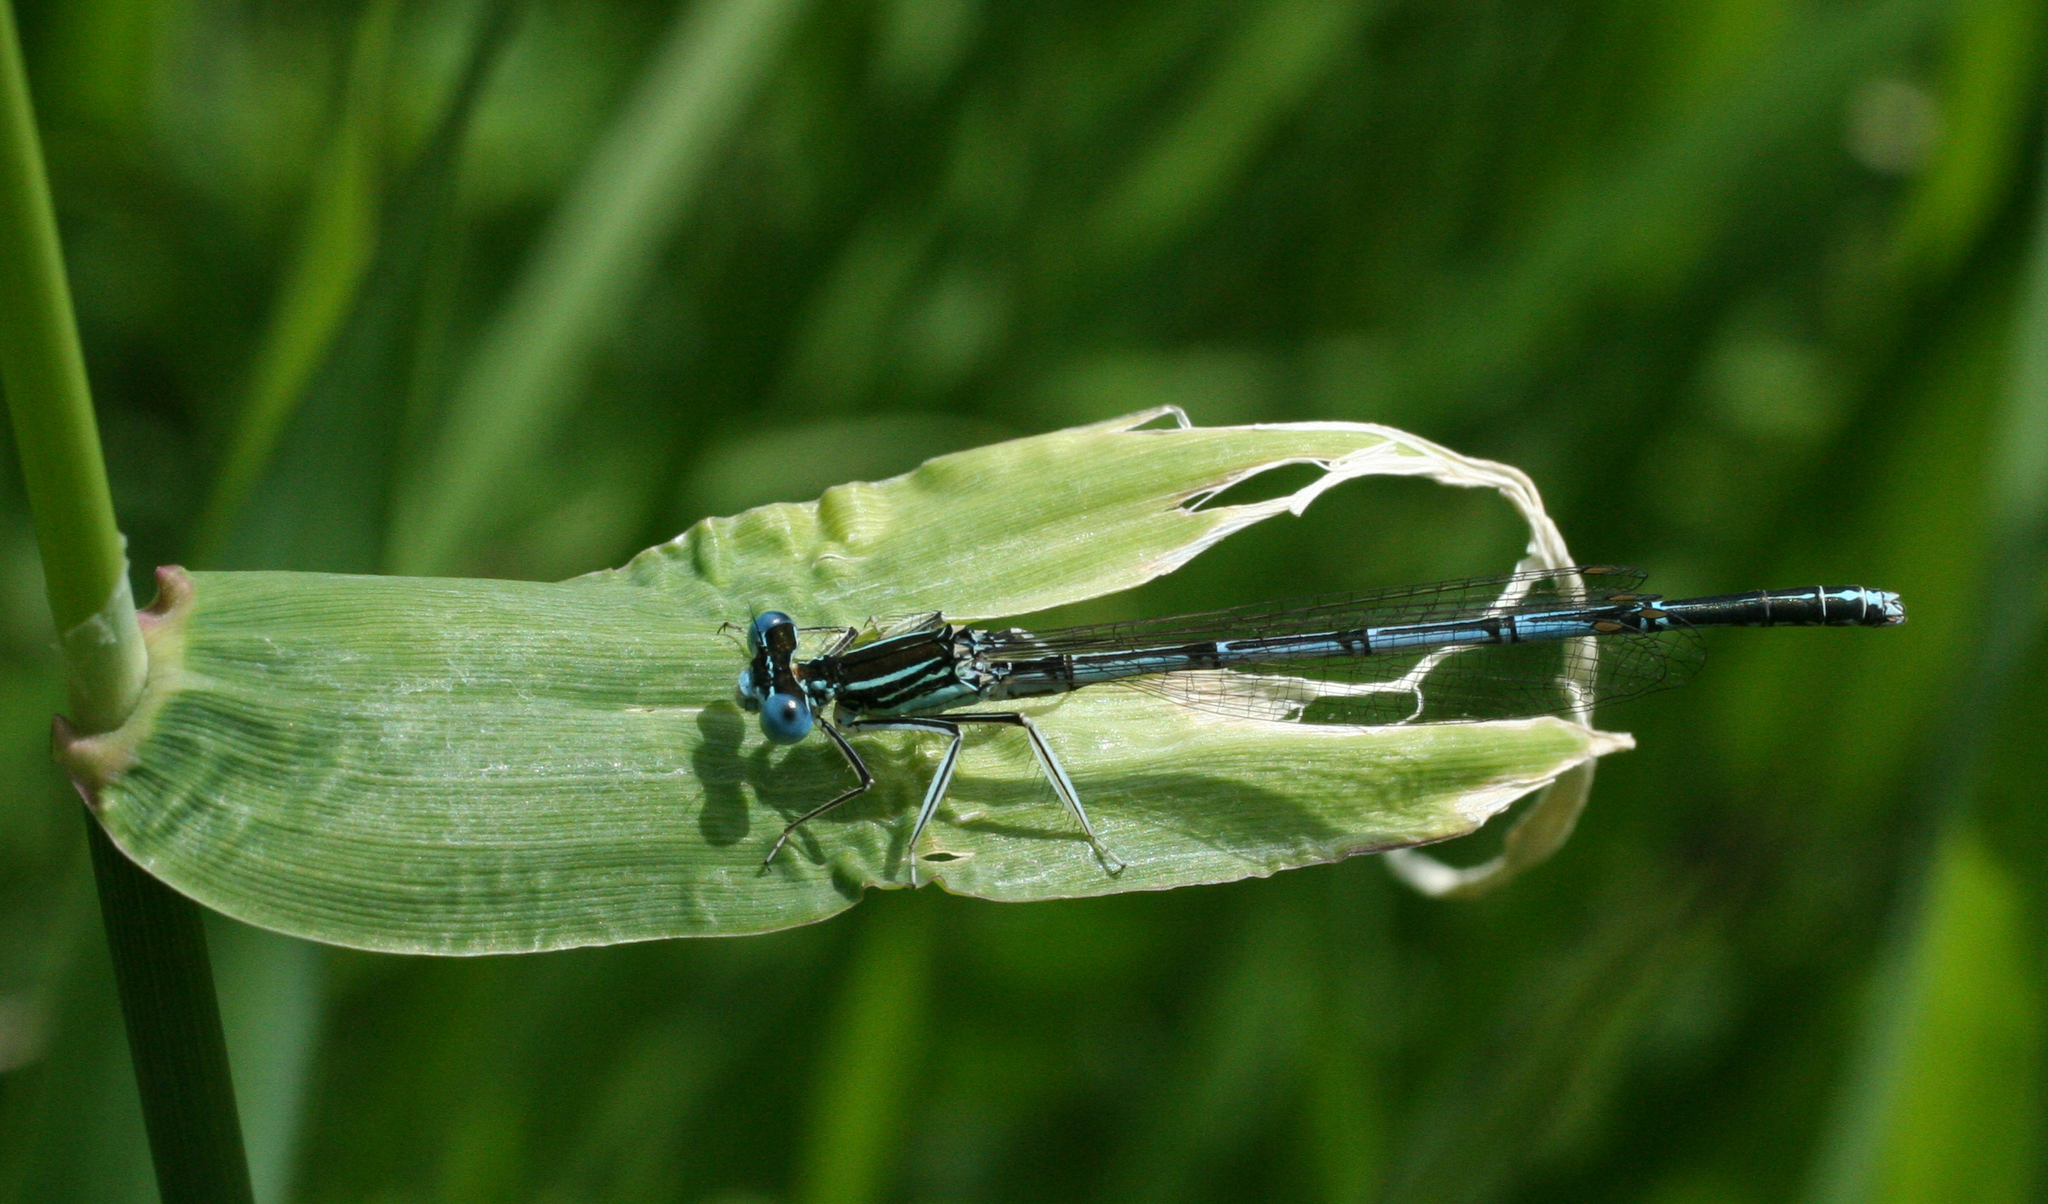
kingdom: Animalia
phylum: Arthropoda
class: Insecta
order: Odonata
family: Platycnemididae
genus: Platycnemis
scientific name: Platycnemis pennipes
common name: White-legged damselfly
